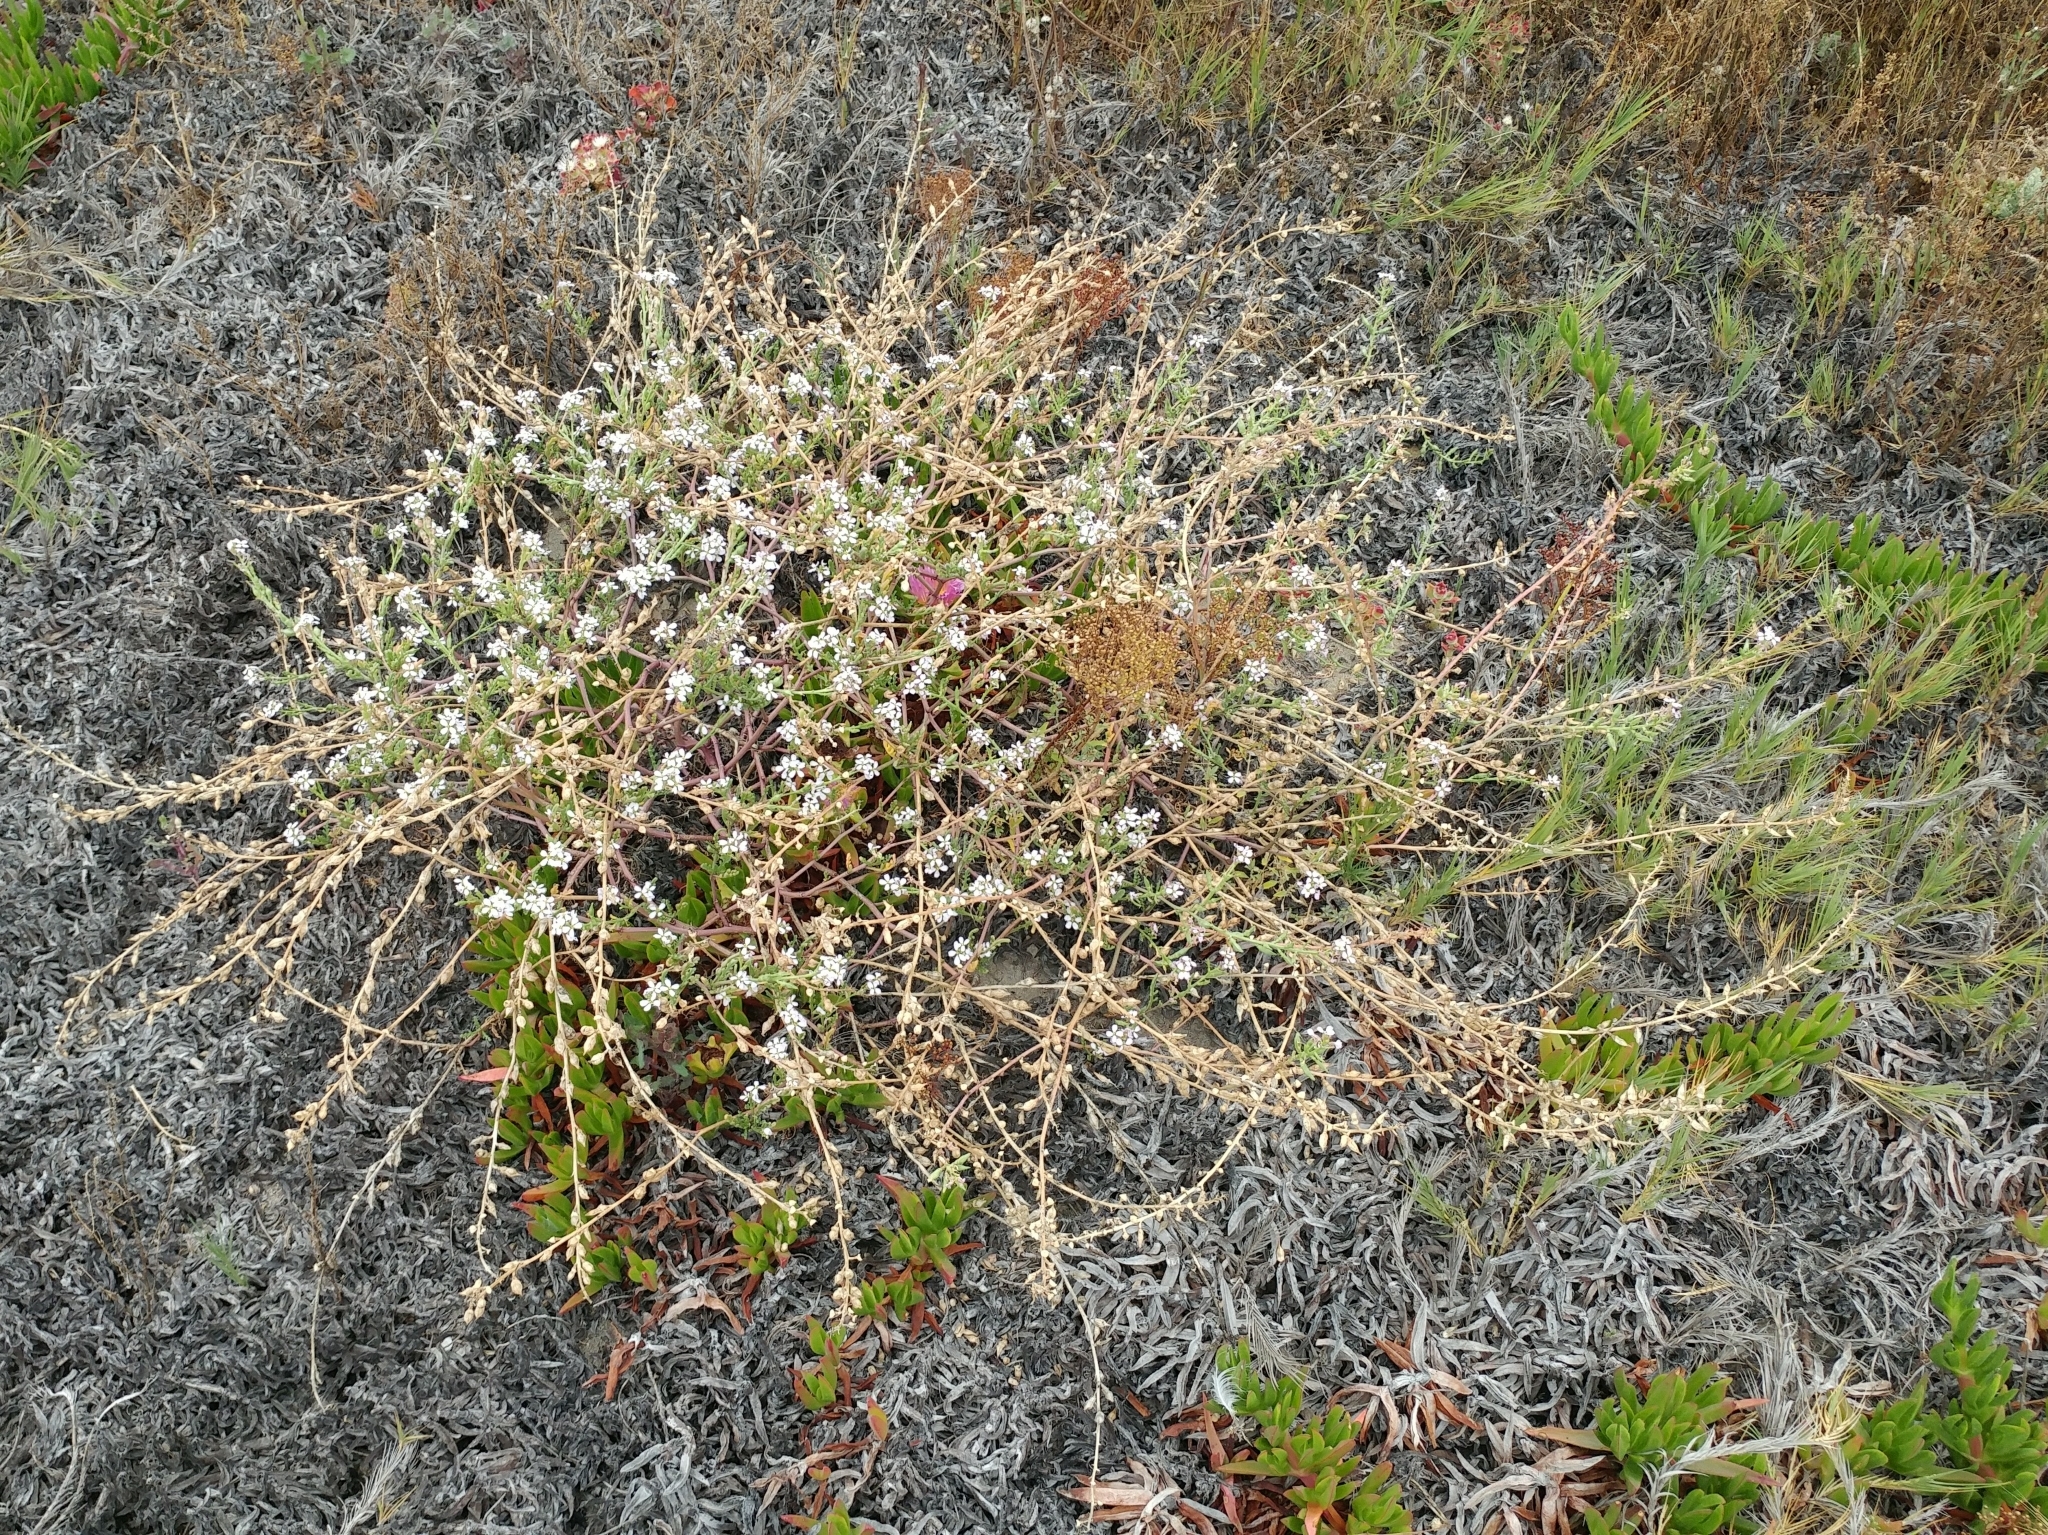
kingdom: Plantae
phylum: Tracheophyta
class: Magnoliopsida
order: Brassicales
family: Brassicaceae
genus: Cakile
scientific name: Cakile maritima
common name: Sea rocket
